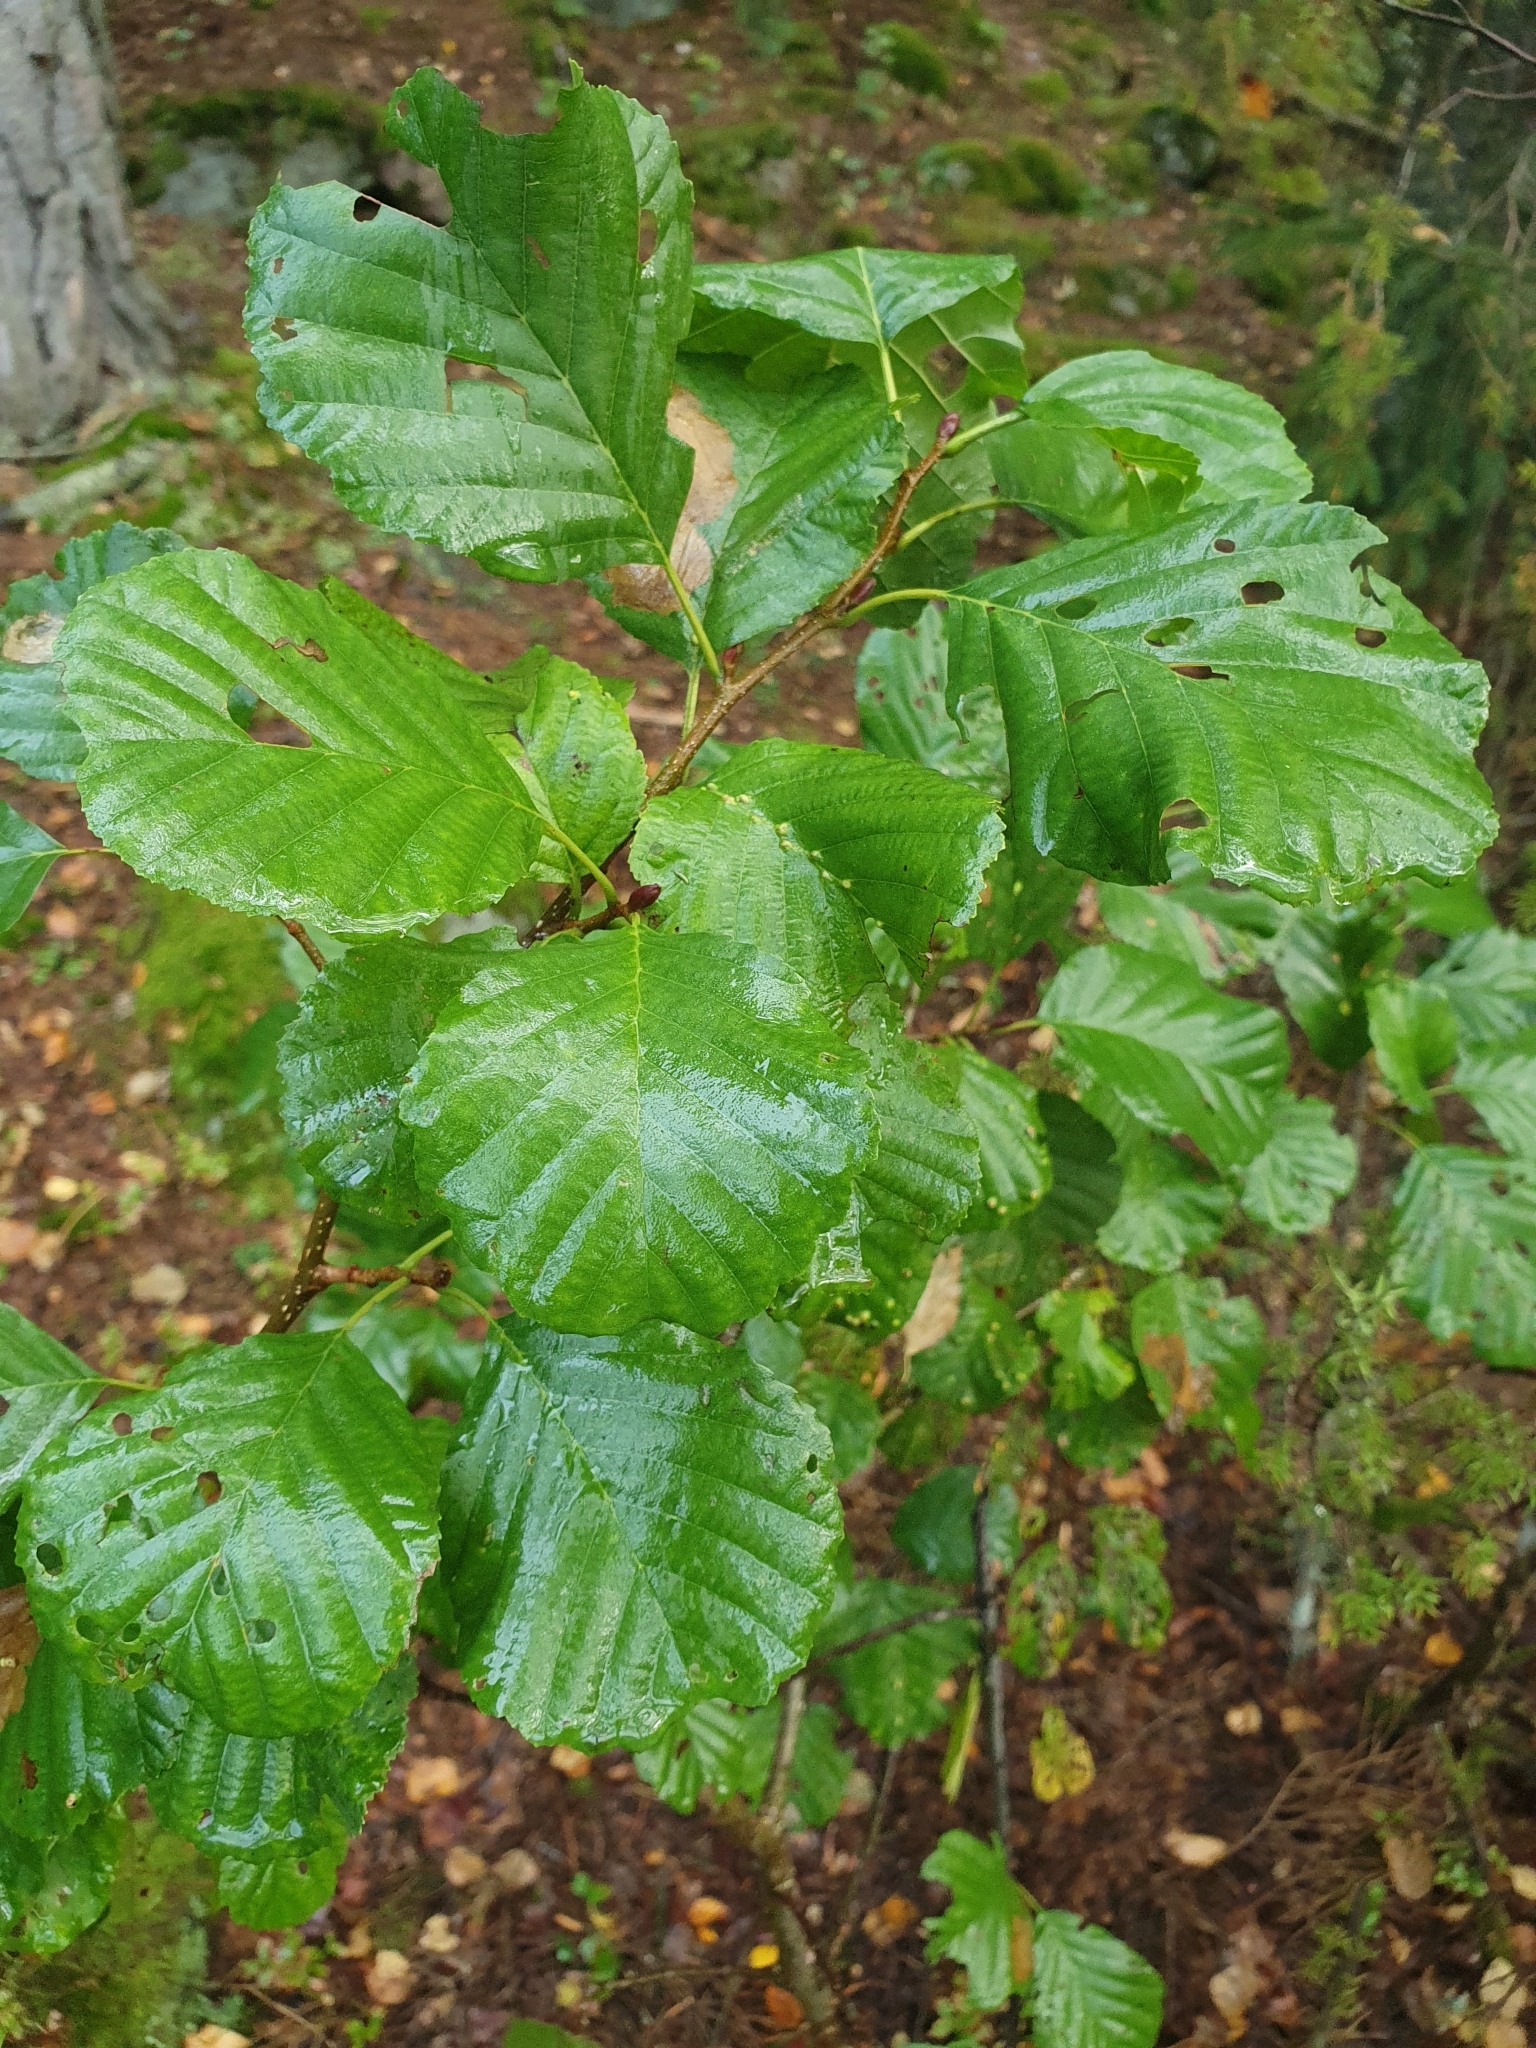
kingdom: Plantae
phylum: Tracheophyta
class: Magnoliopsida
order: Fagales
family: Betulaceae
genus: Alnus
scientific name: Alnus glutinosa
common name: Black alder
